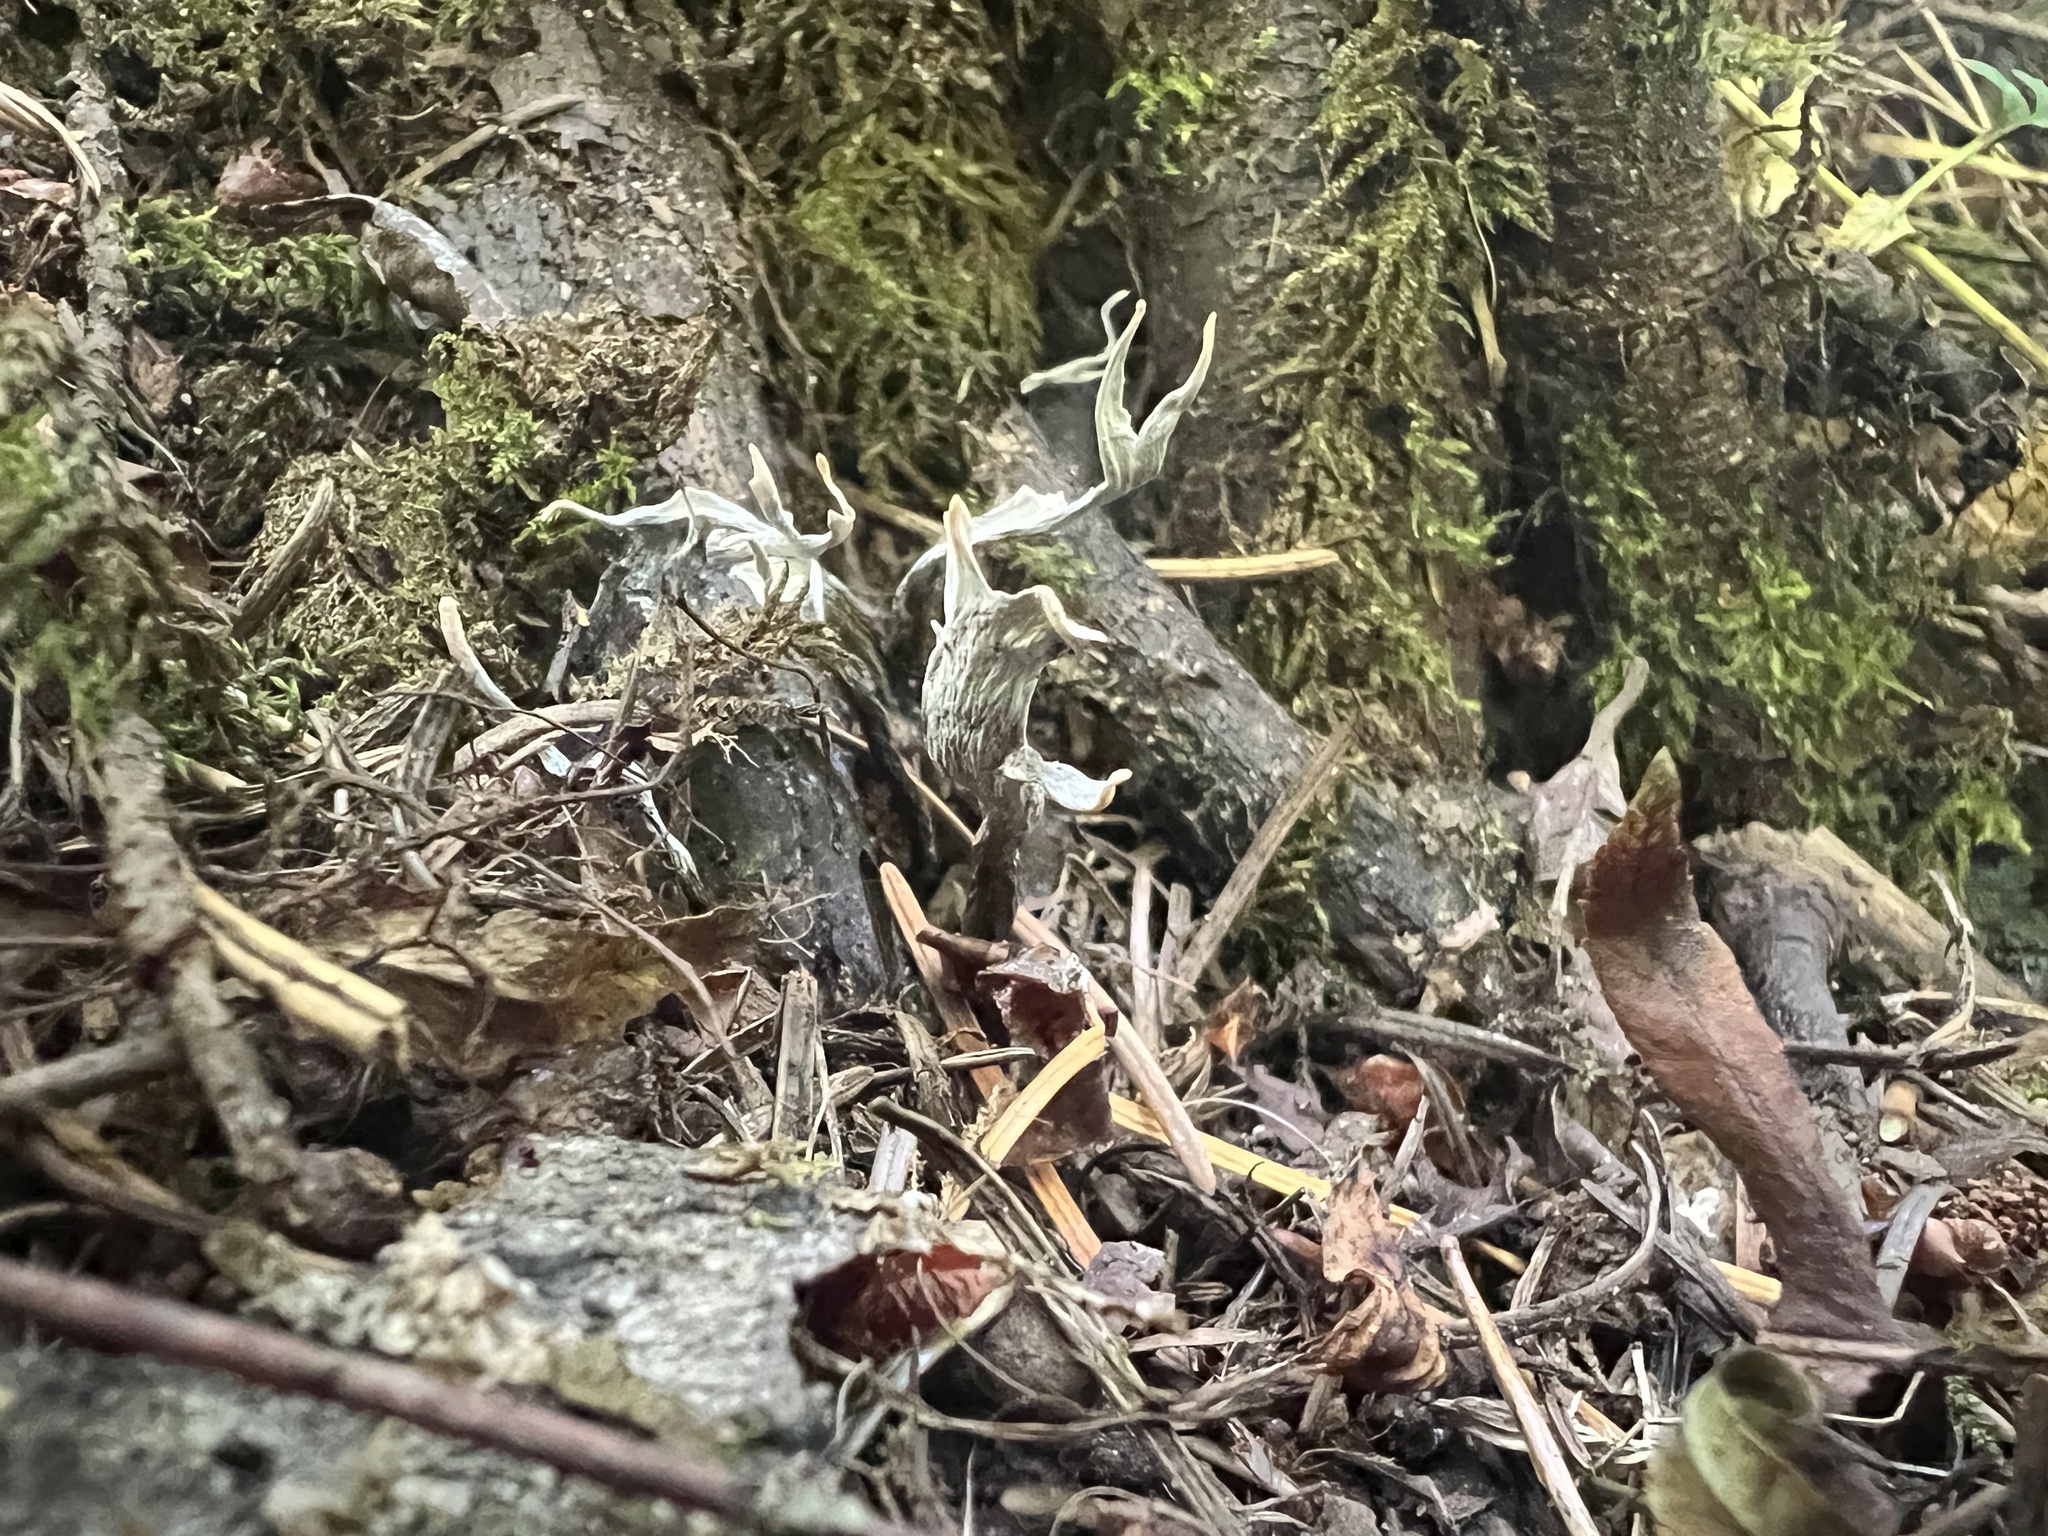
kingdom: Fungi
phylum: Ascomycota
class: Sordariomycetes
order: Xylariales
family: Xylariaceae
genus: Xylaria
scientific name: Xylaria hypoxylon
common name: Candle-snuff fungus
